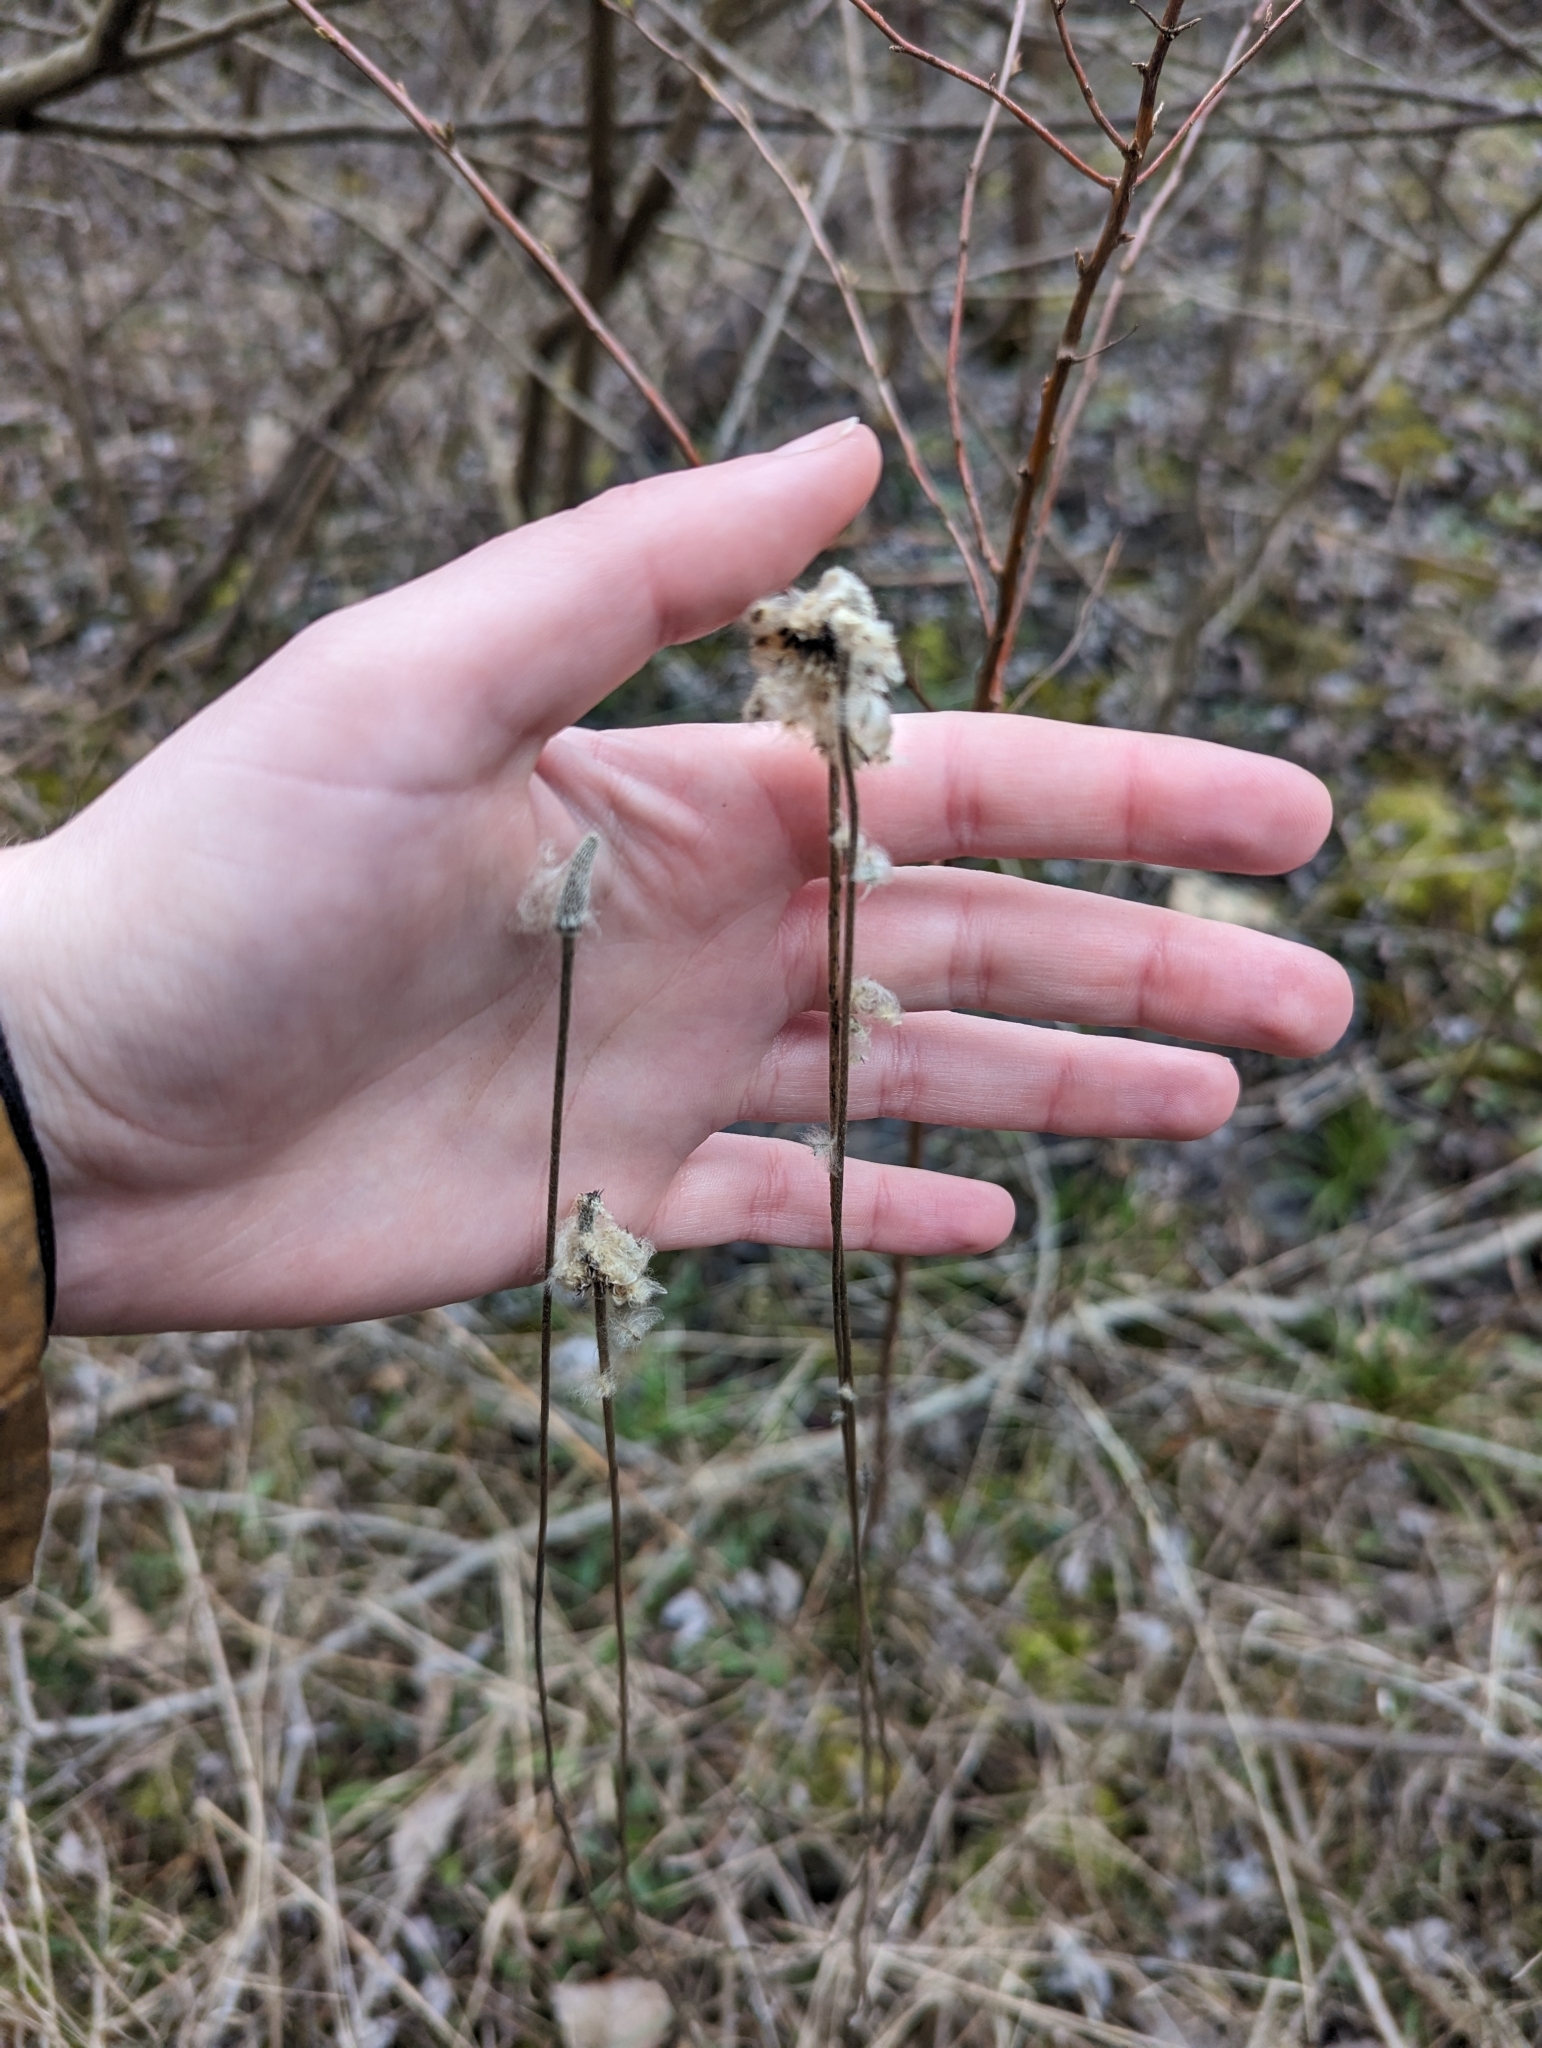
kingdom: Plantae
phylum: Tracheophyta
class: Magnoliopsida
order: Ranunculales
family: Ranunculaceae
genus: Anemone
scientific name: Anemone virginiana
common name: Tall anemone
